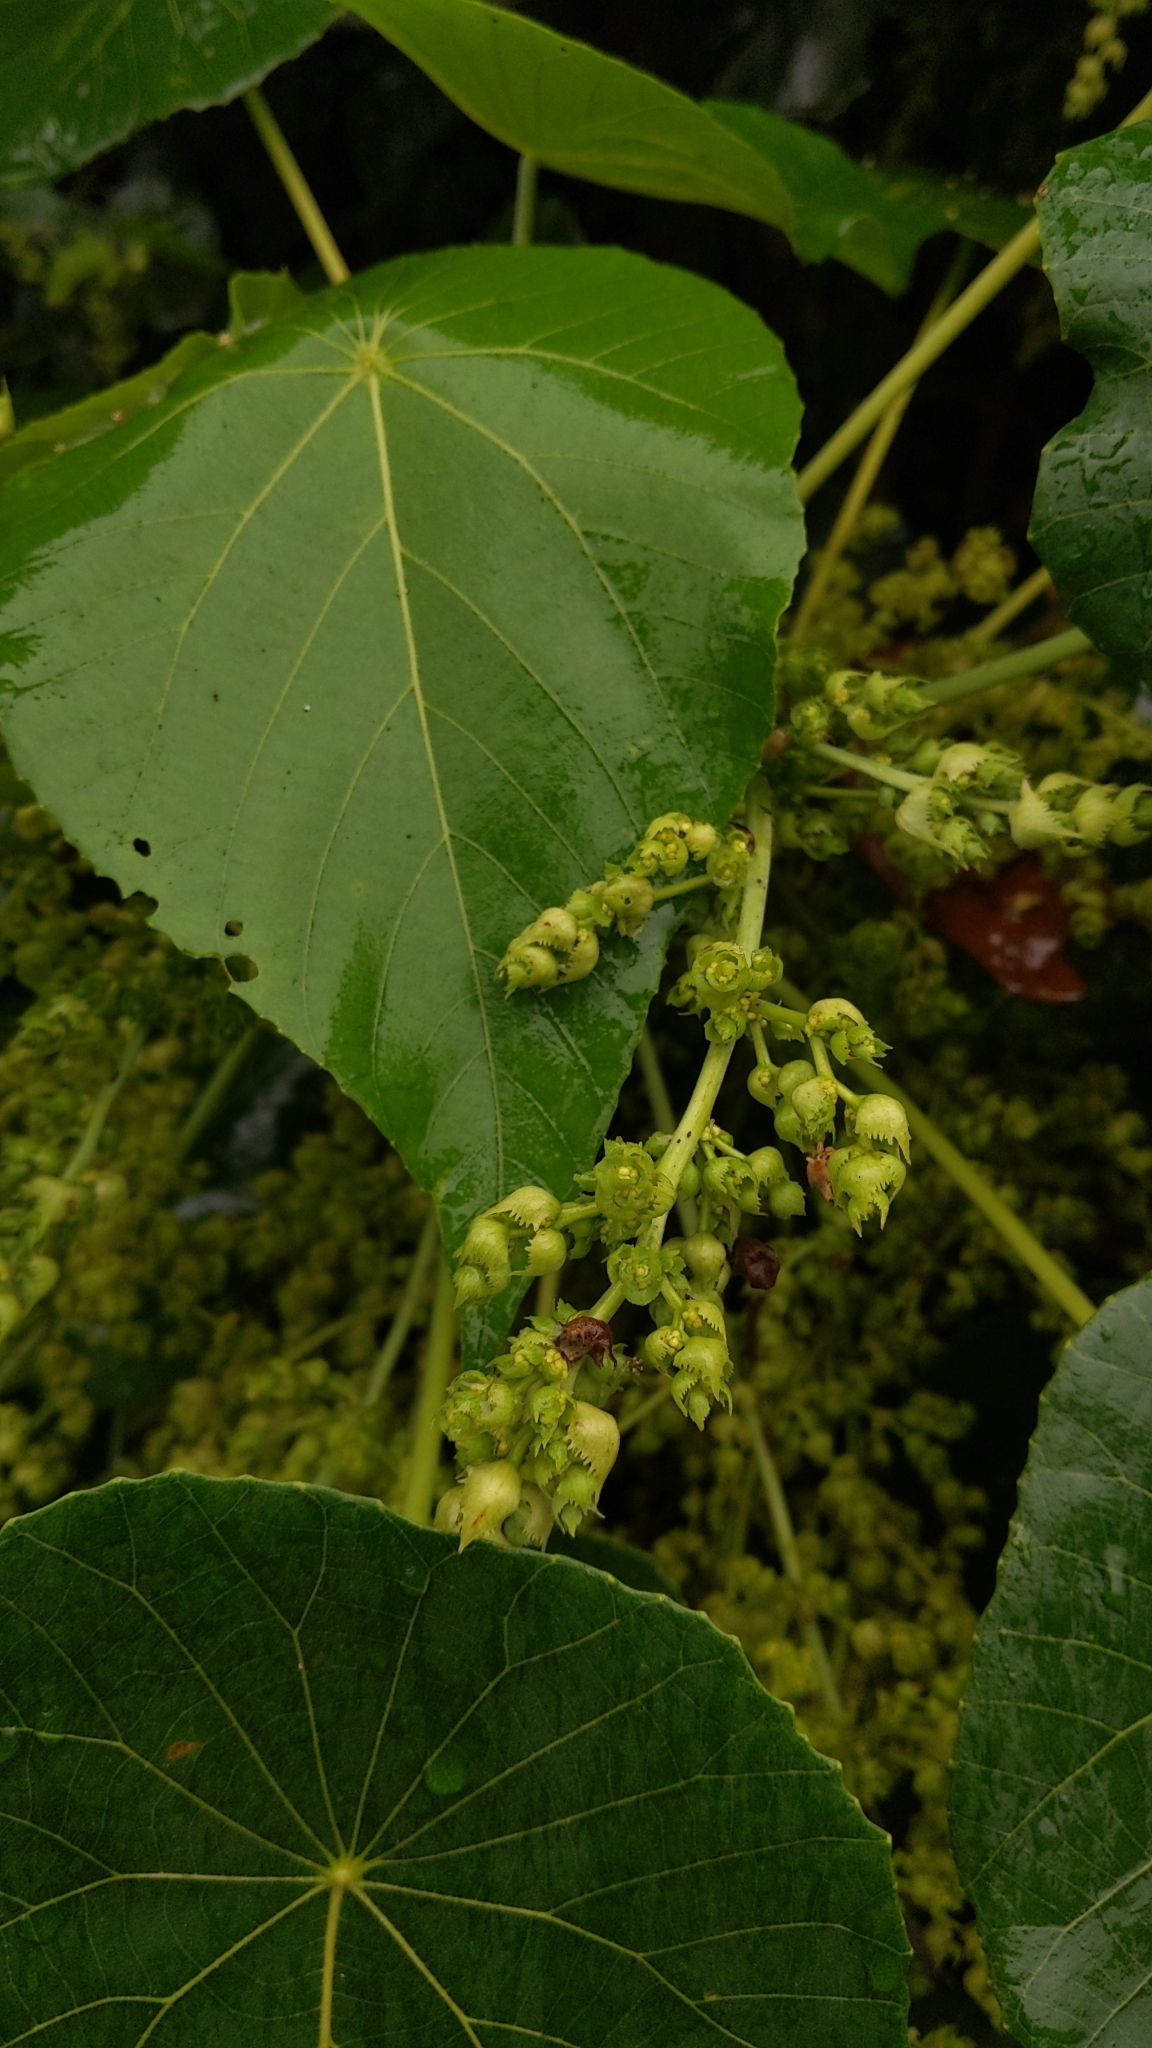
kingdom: Plantae
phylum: Tracheophyta
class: Magnoliopsida
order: Malpighiales
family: Euphorbiaceae
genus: Macaranga
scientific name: Macaranga tanarius
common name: Parasol leaf tree
